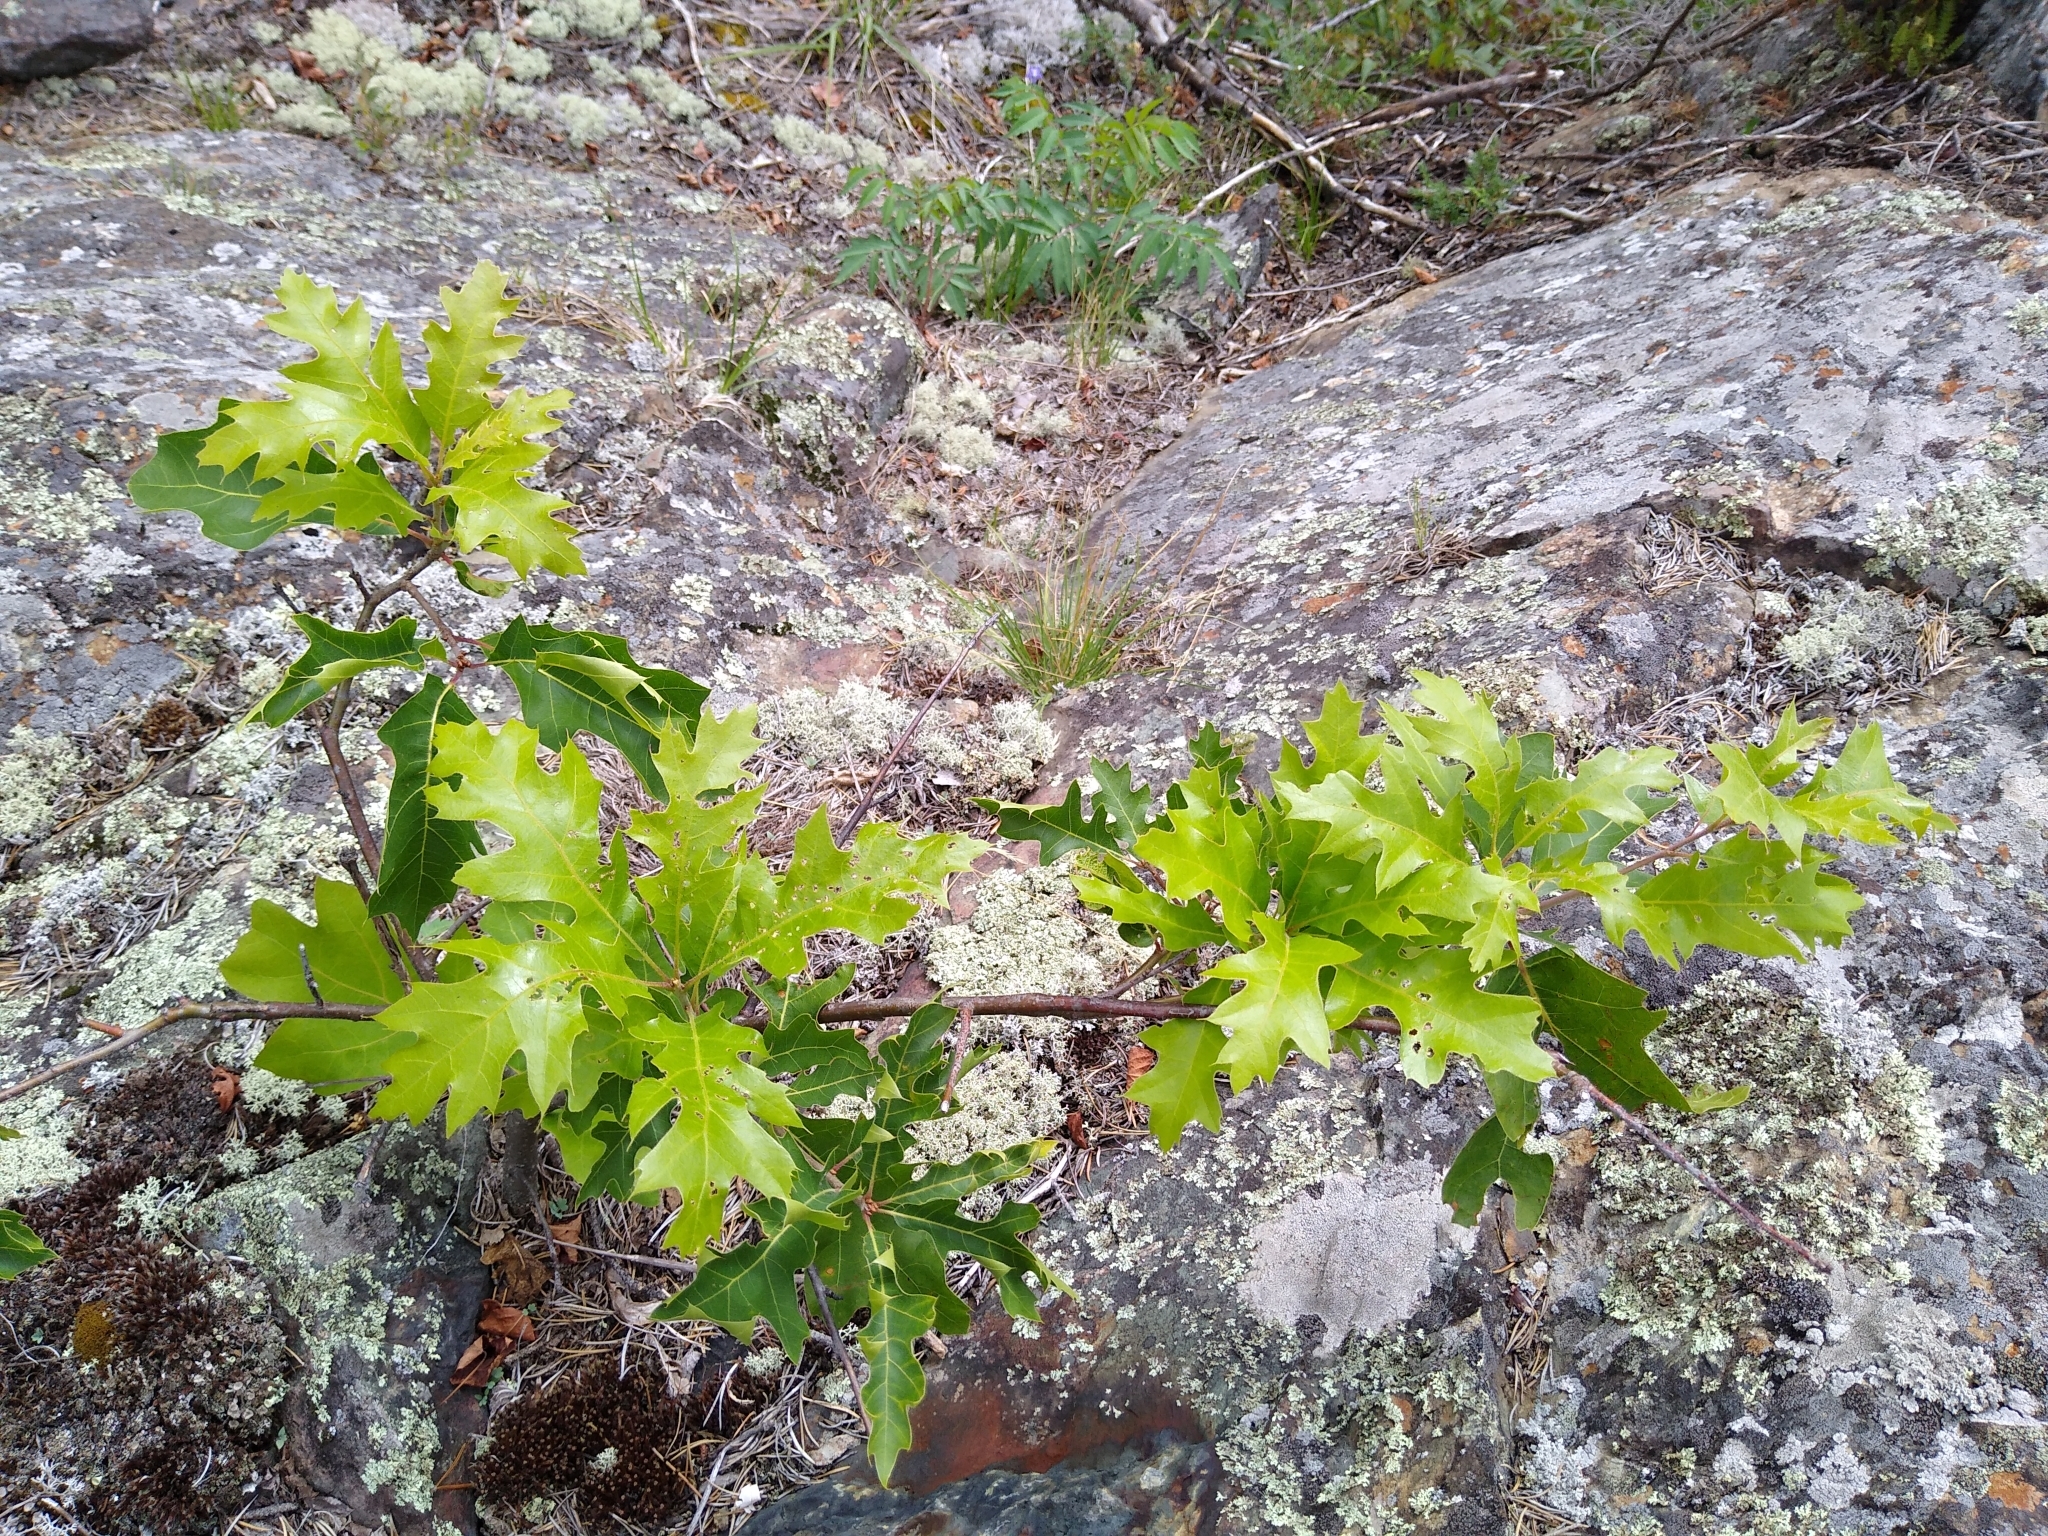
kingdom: Plantae
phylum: Tracheophyta
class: Magnoliopsida
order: Fagales
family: Fagaceae
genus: Quercus
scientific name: Quercus rubra
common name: Red oak
